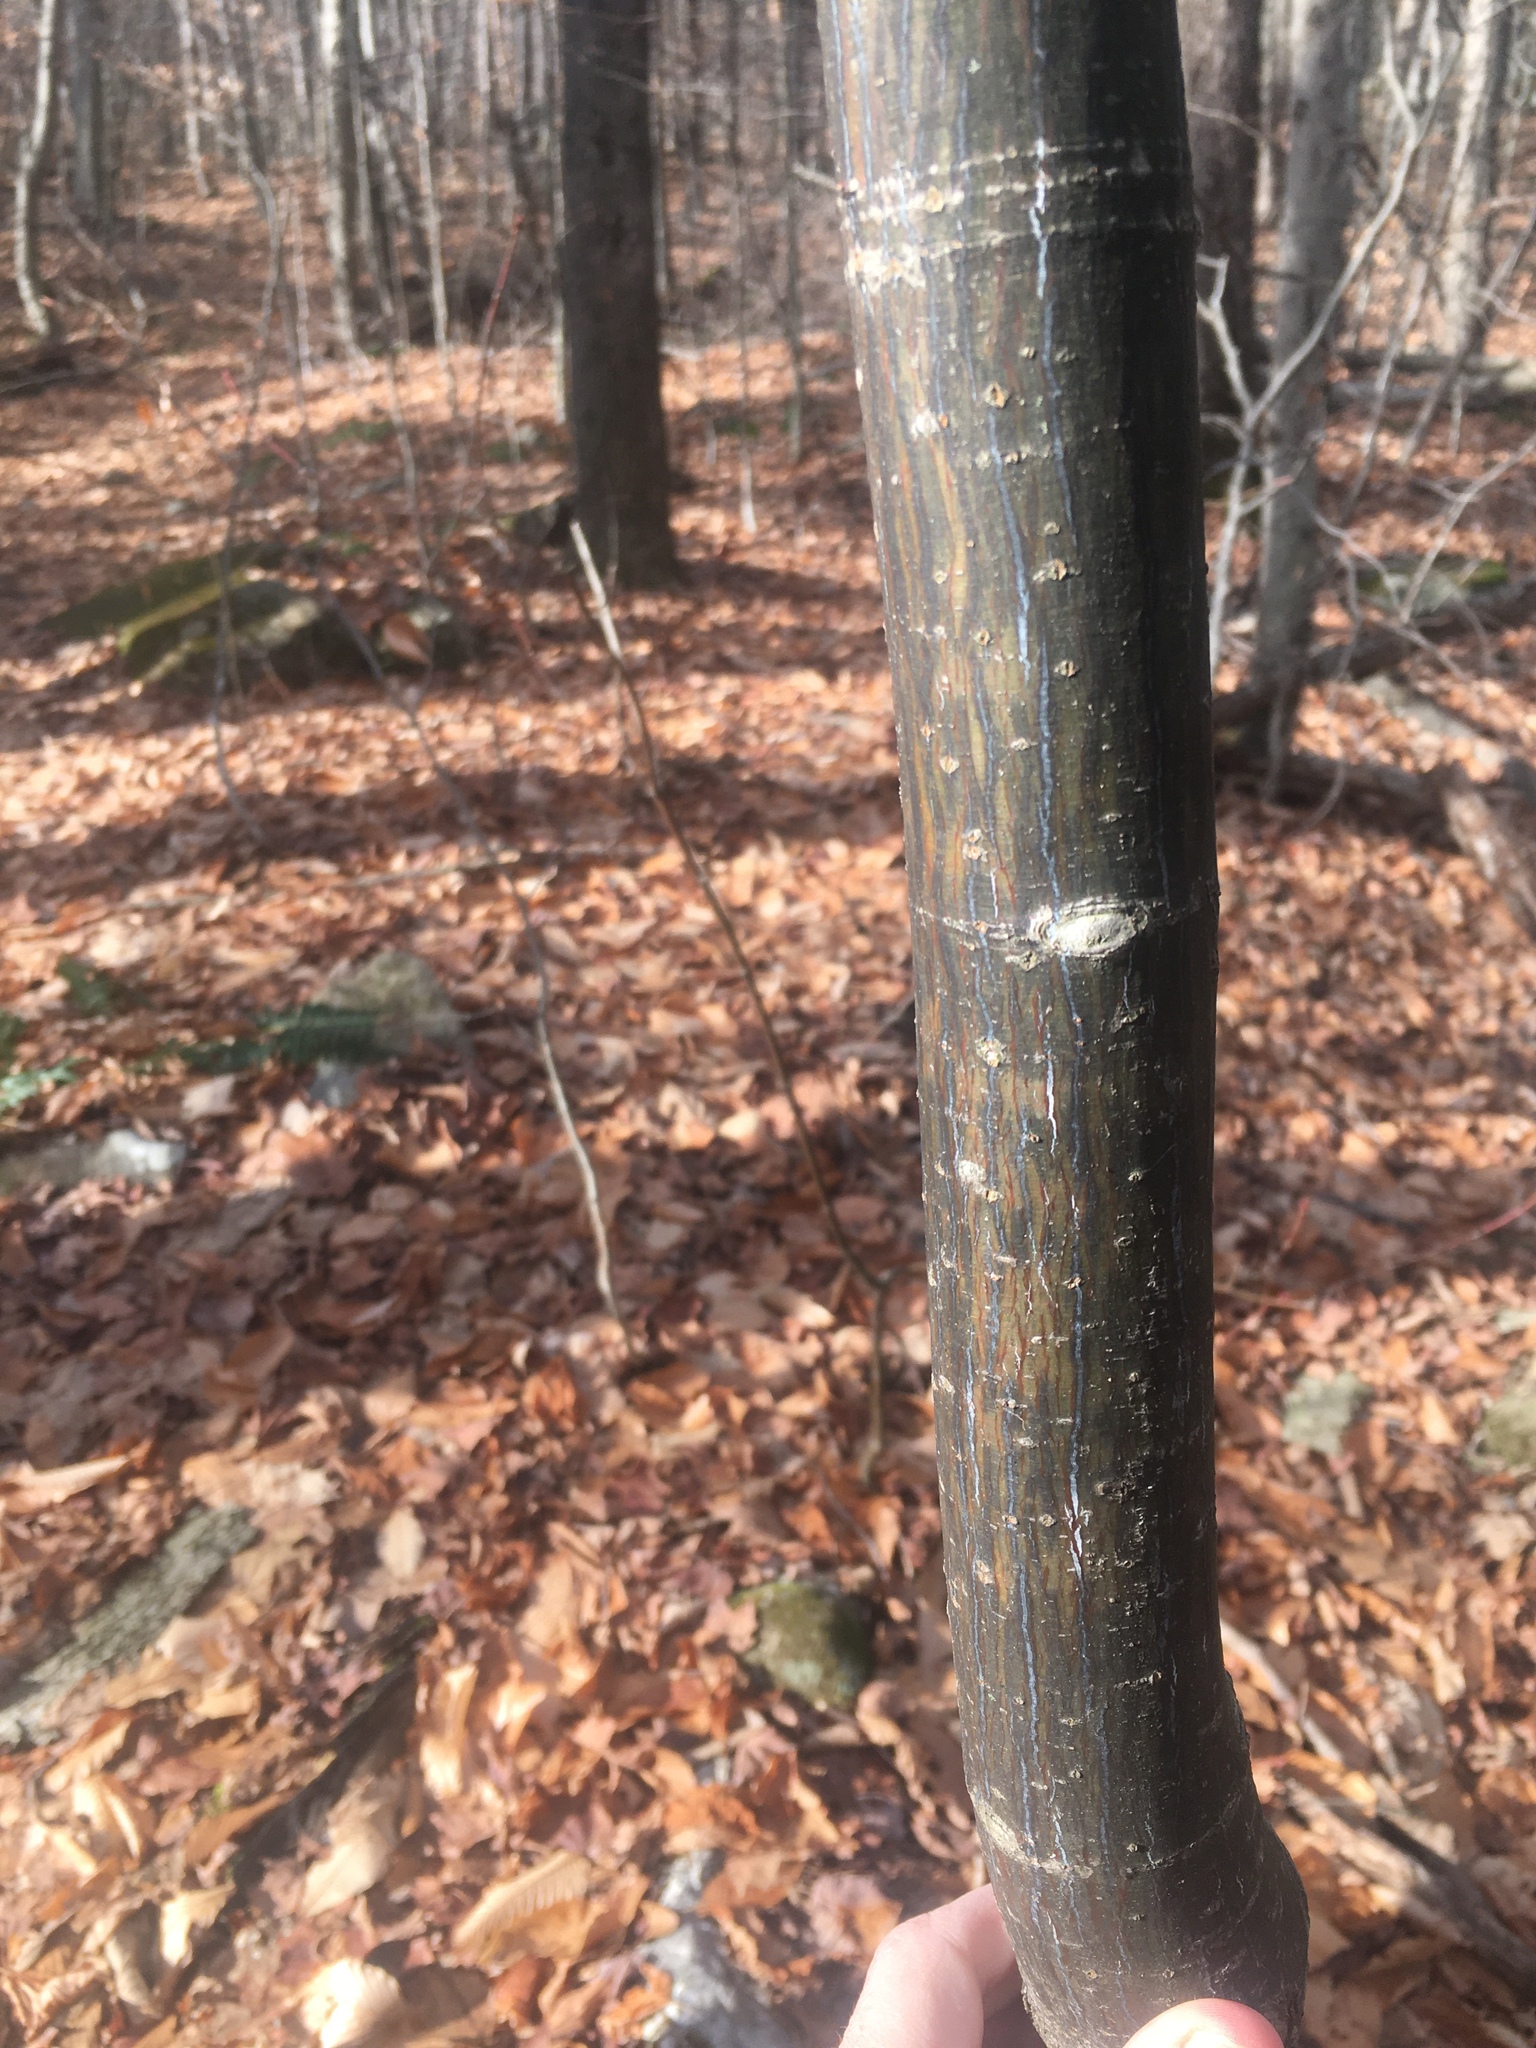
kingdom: Plantae
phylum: Tracheophyta
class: Magnoliopsida
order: Sapindales
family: Sapindaceae
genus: Acer
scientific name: Acer pensylvanicum
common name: Moosewood
